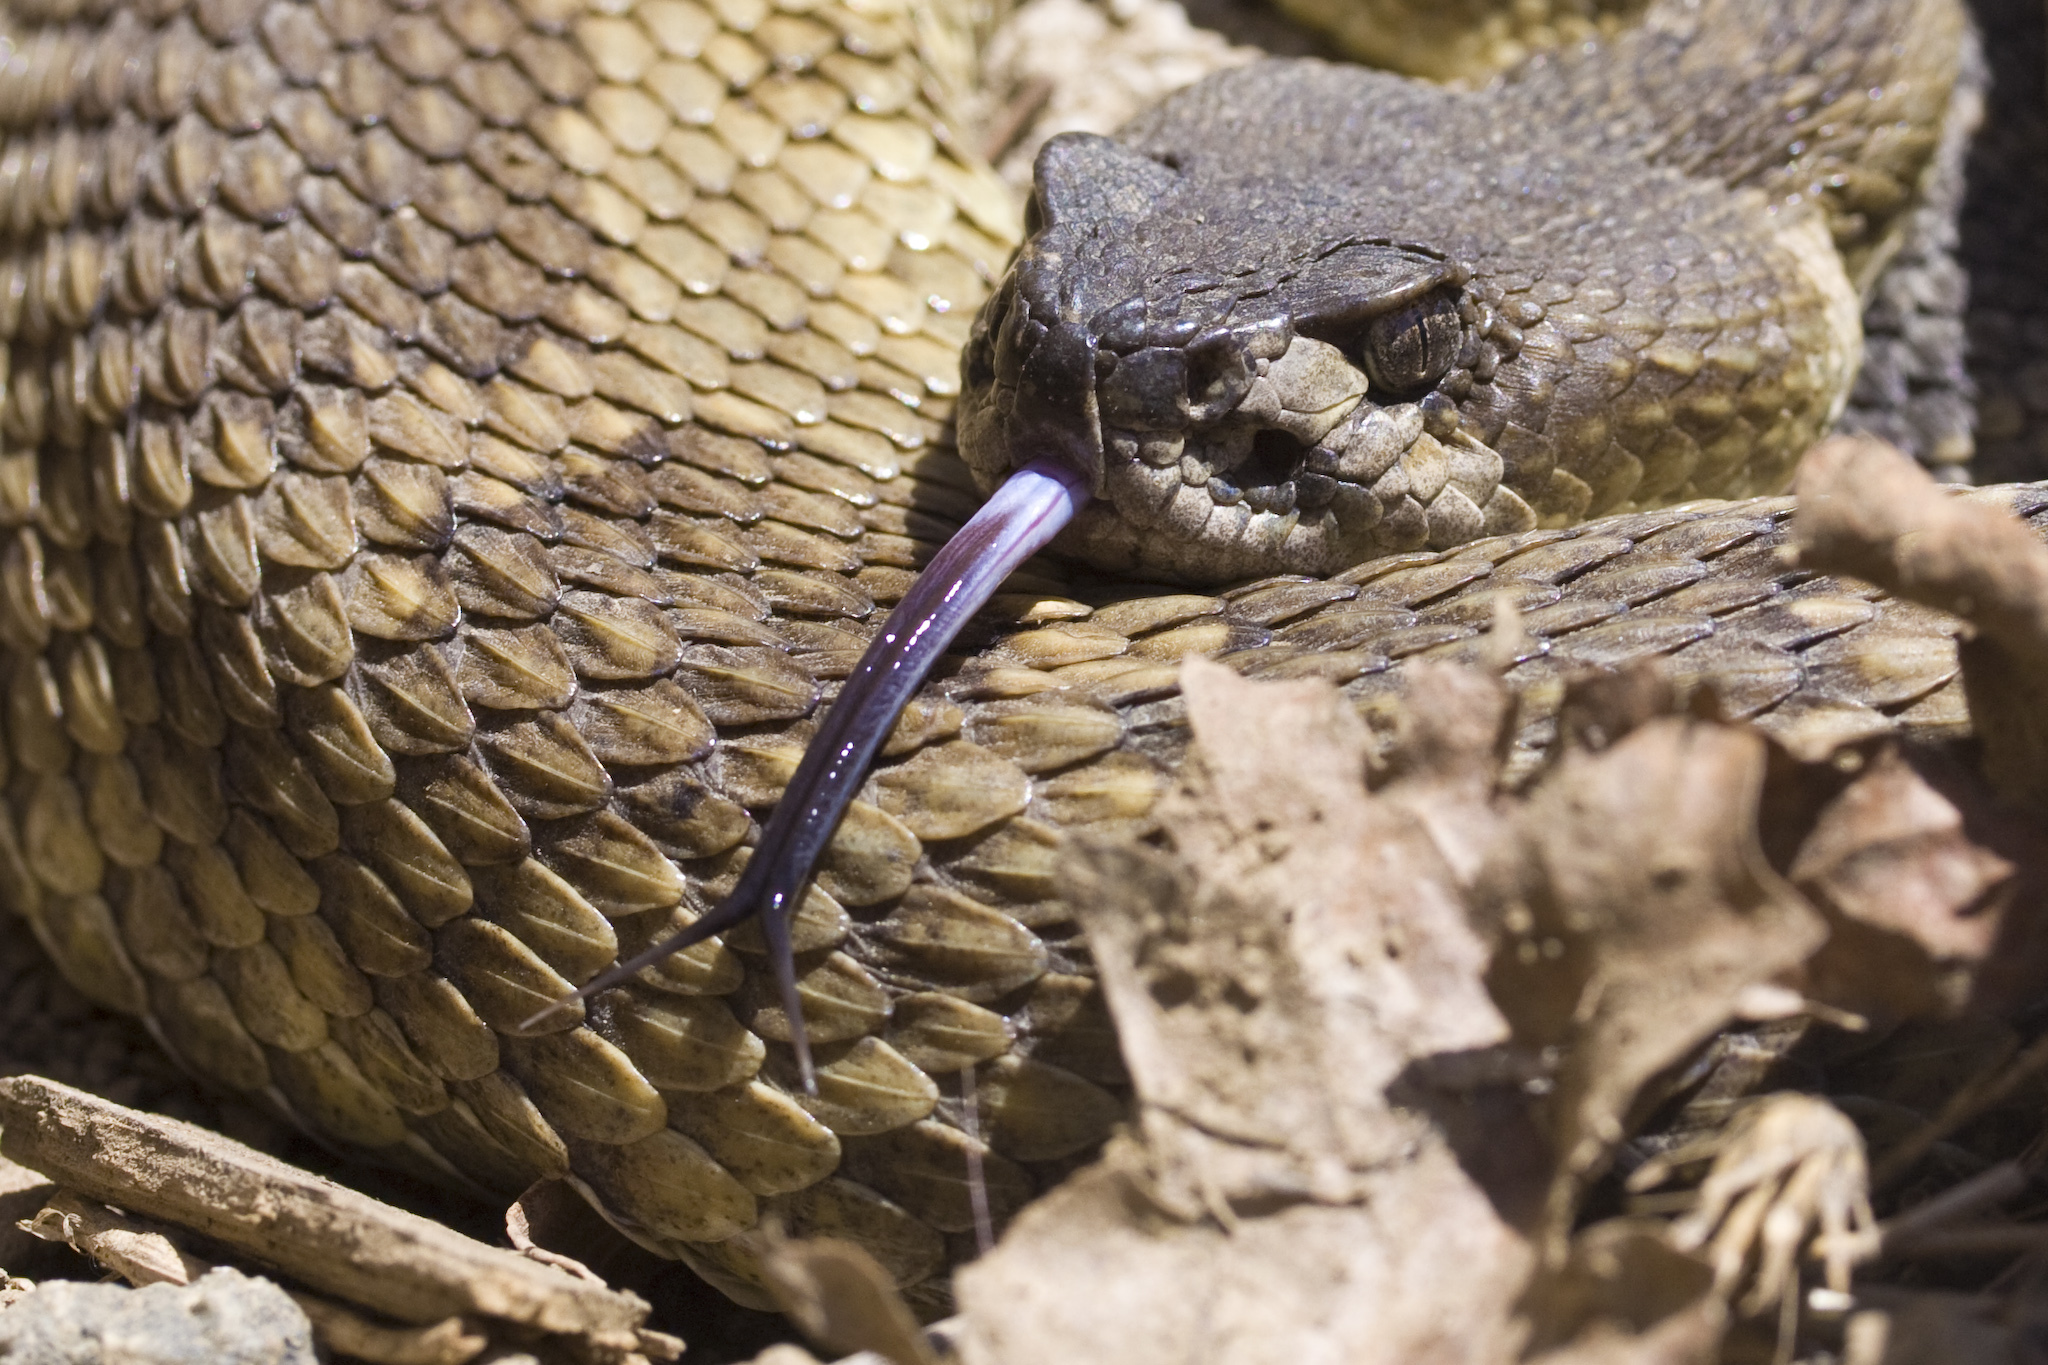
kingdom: Animalia
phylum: Chordata
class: Squamata
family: Viperidae
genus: Crotalus
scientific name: Crotalus oreganus
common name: Abyssus
